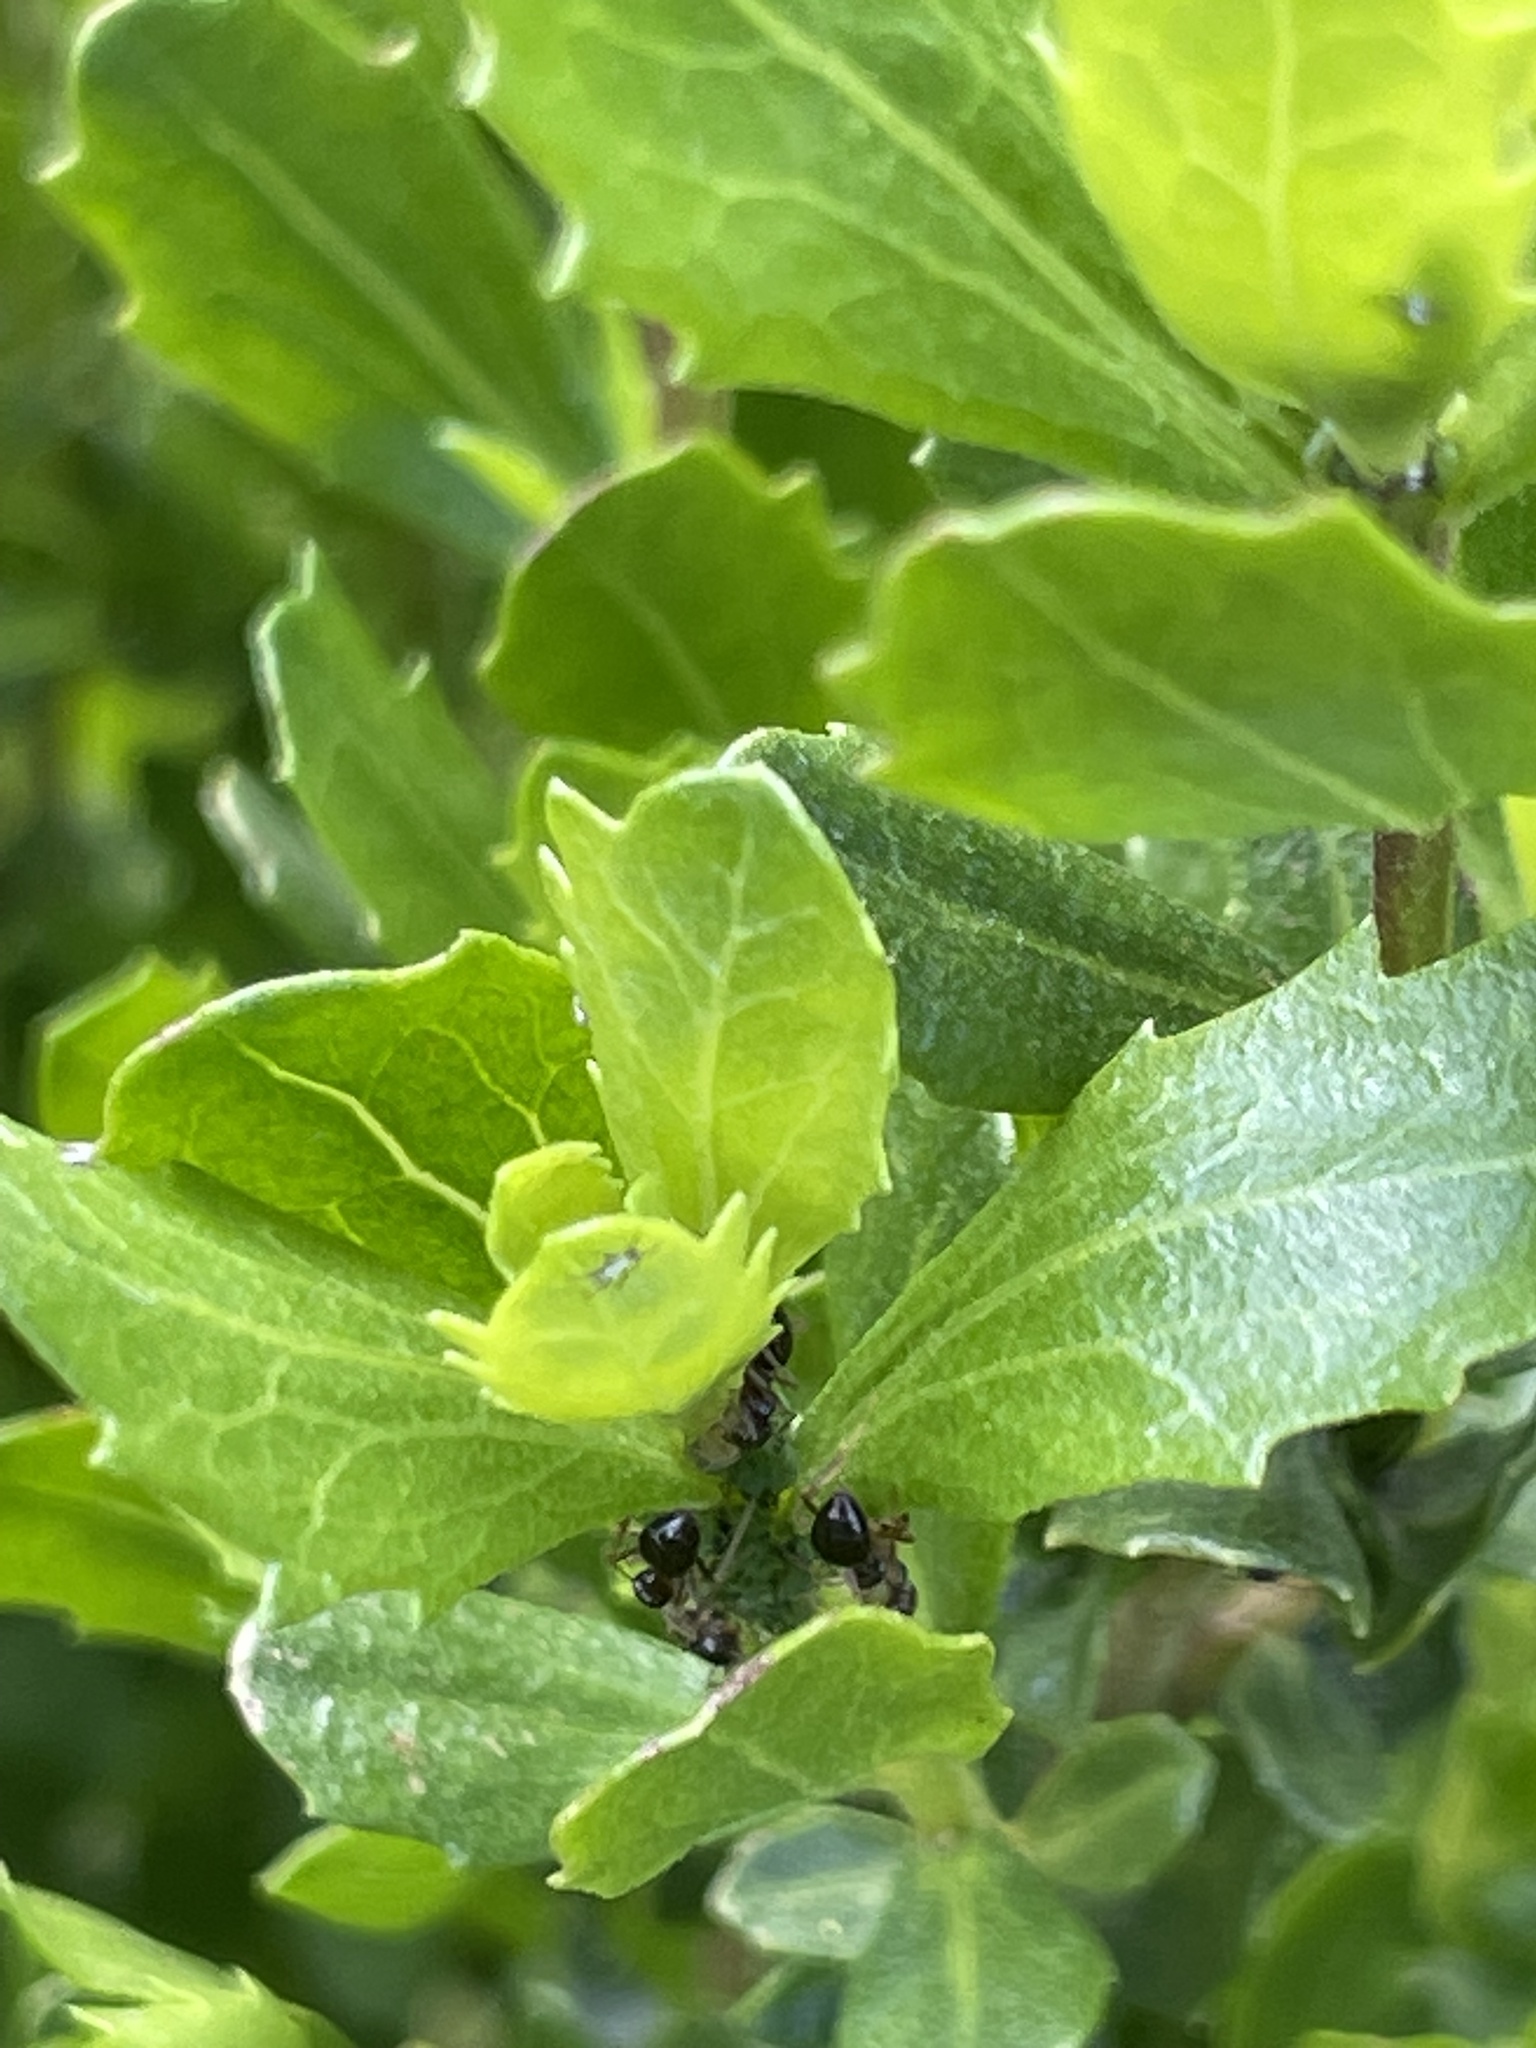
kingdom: Animalia
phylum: Arthropoda
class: Insecta
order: Hymenoptera
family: Formicidae
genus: Prenolepis
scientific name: Prenolepis imparis
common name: Small honey ant
